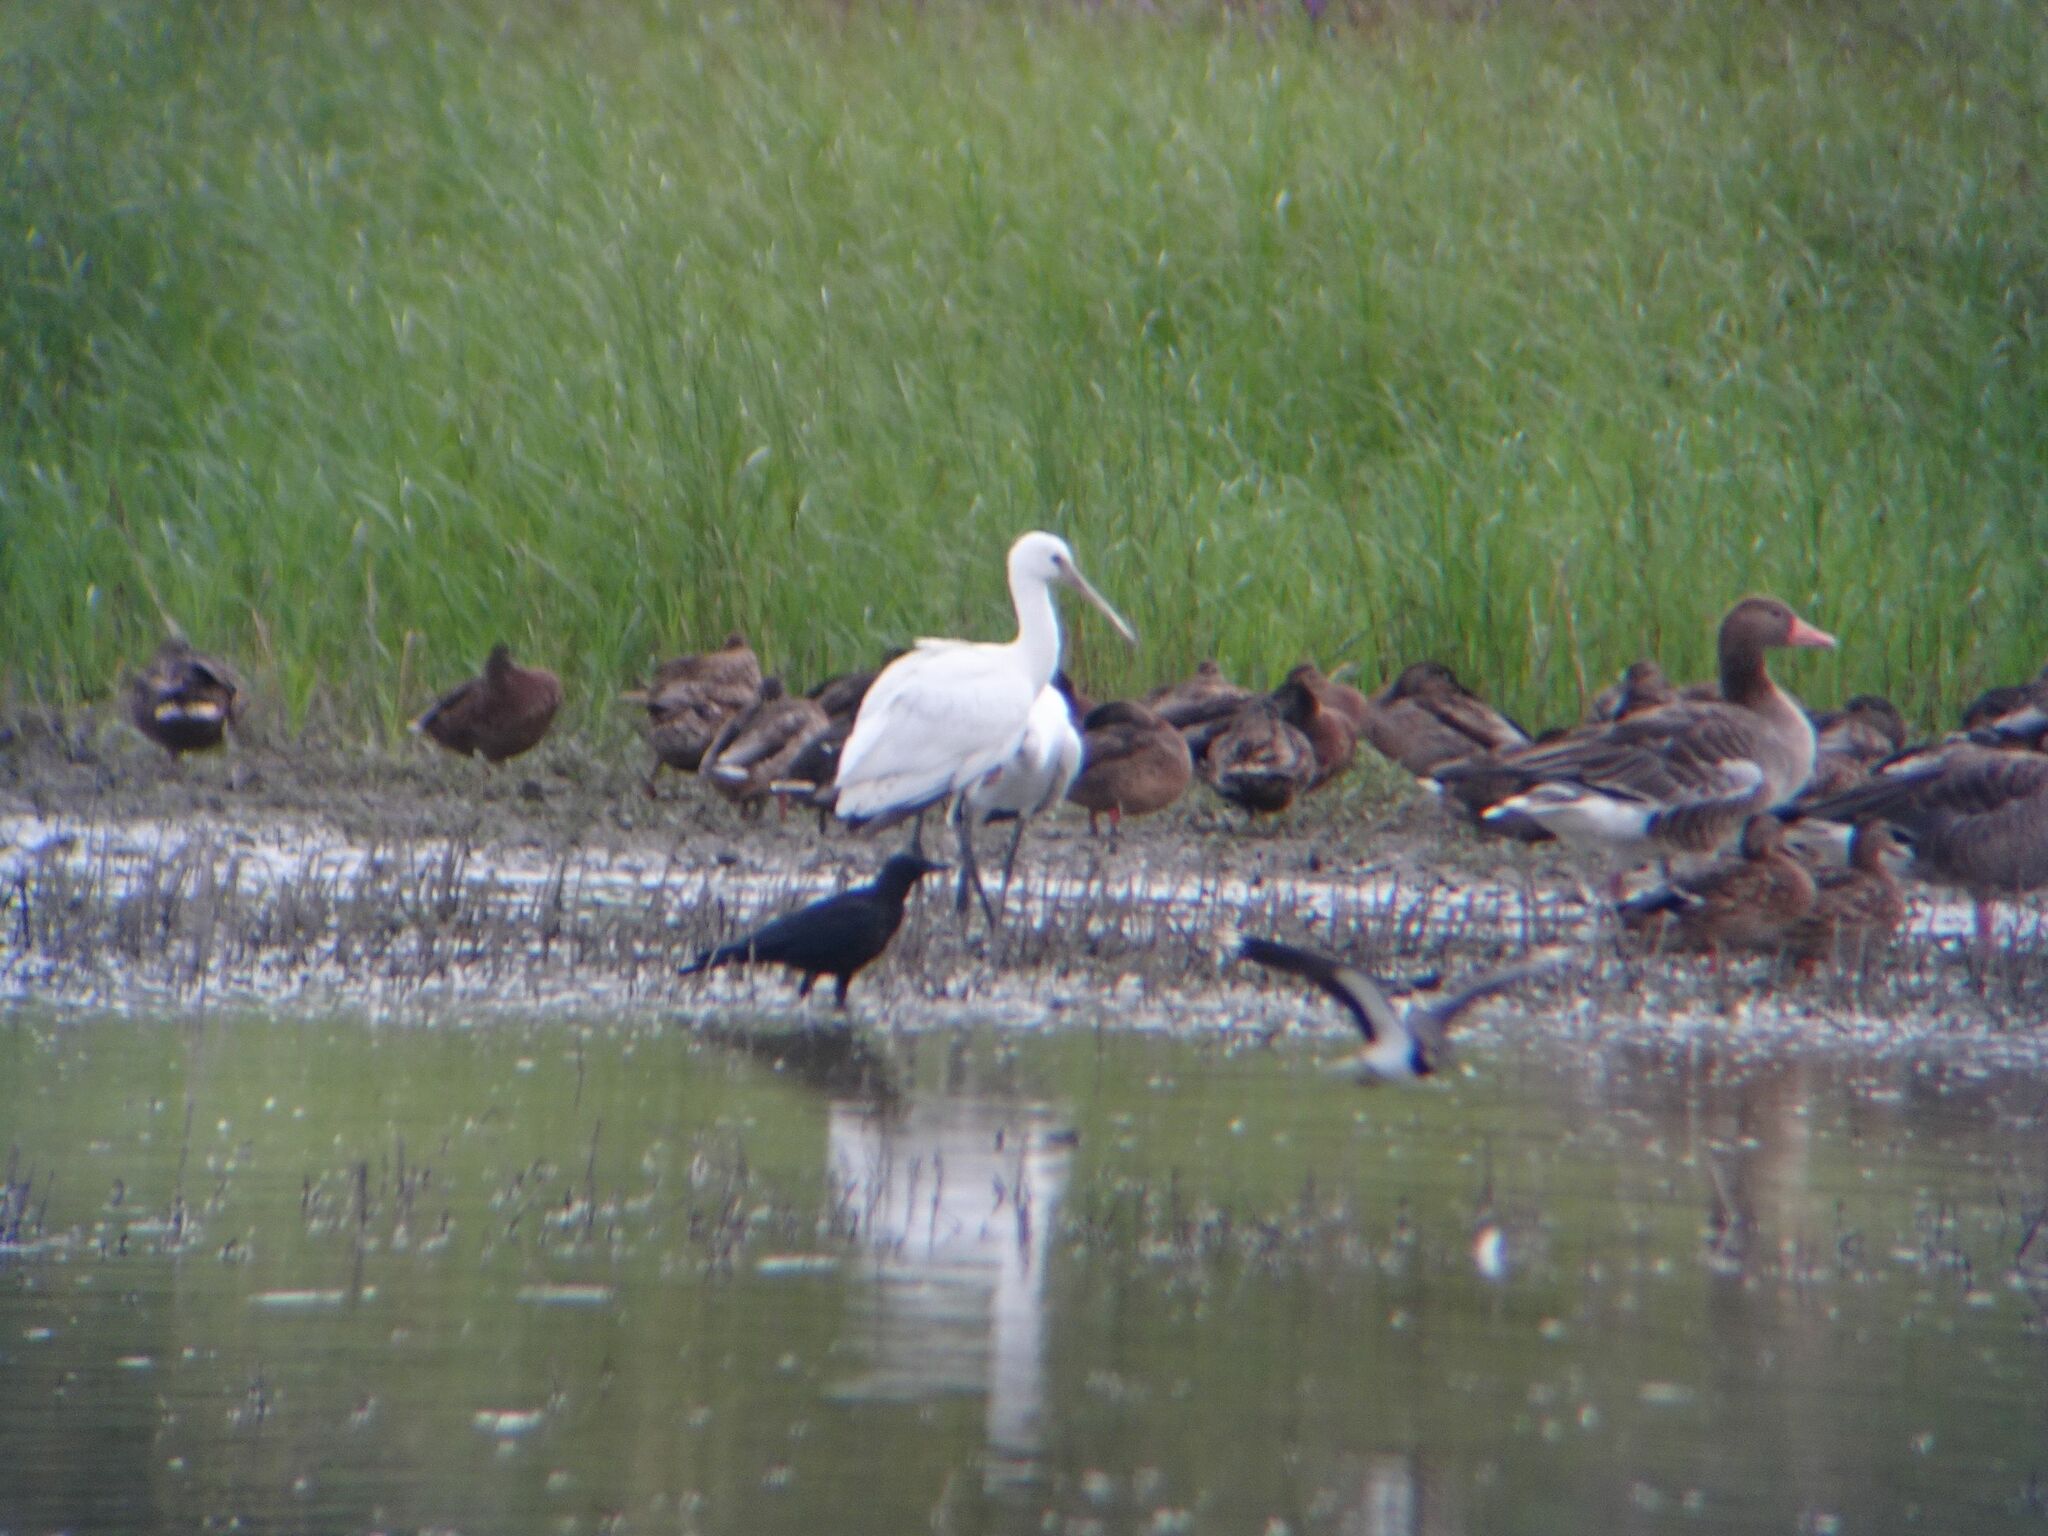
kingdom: Animalia
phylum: Chordata
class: Aves
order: Pelecaniformes
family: Threskiornithidae
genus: Platalea
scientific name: Platalea leucorodia
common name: Eurasian spoonbill
